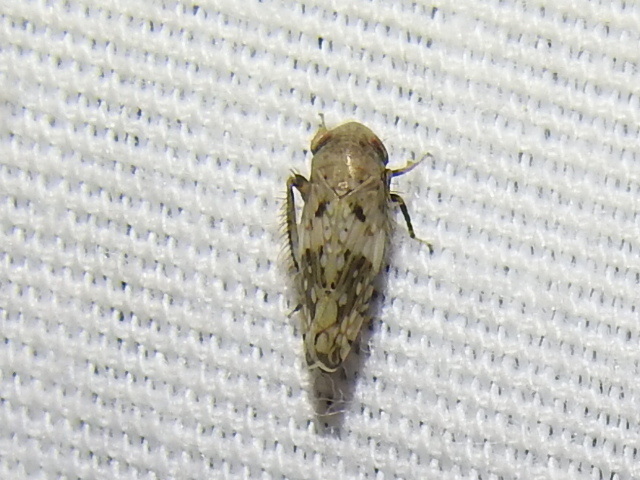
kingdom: Animalia
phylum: Arthropoda
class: Insecta
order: Hemiptera
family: Cicadellidae
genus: Menosoma
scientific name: Menosoma cinctum
